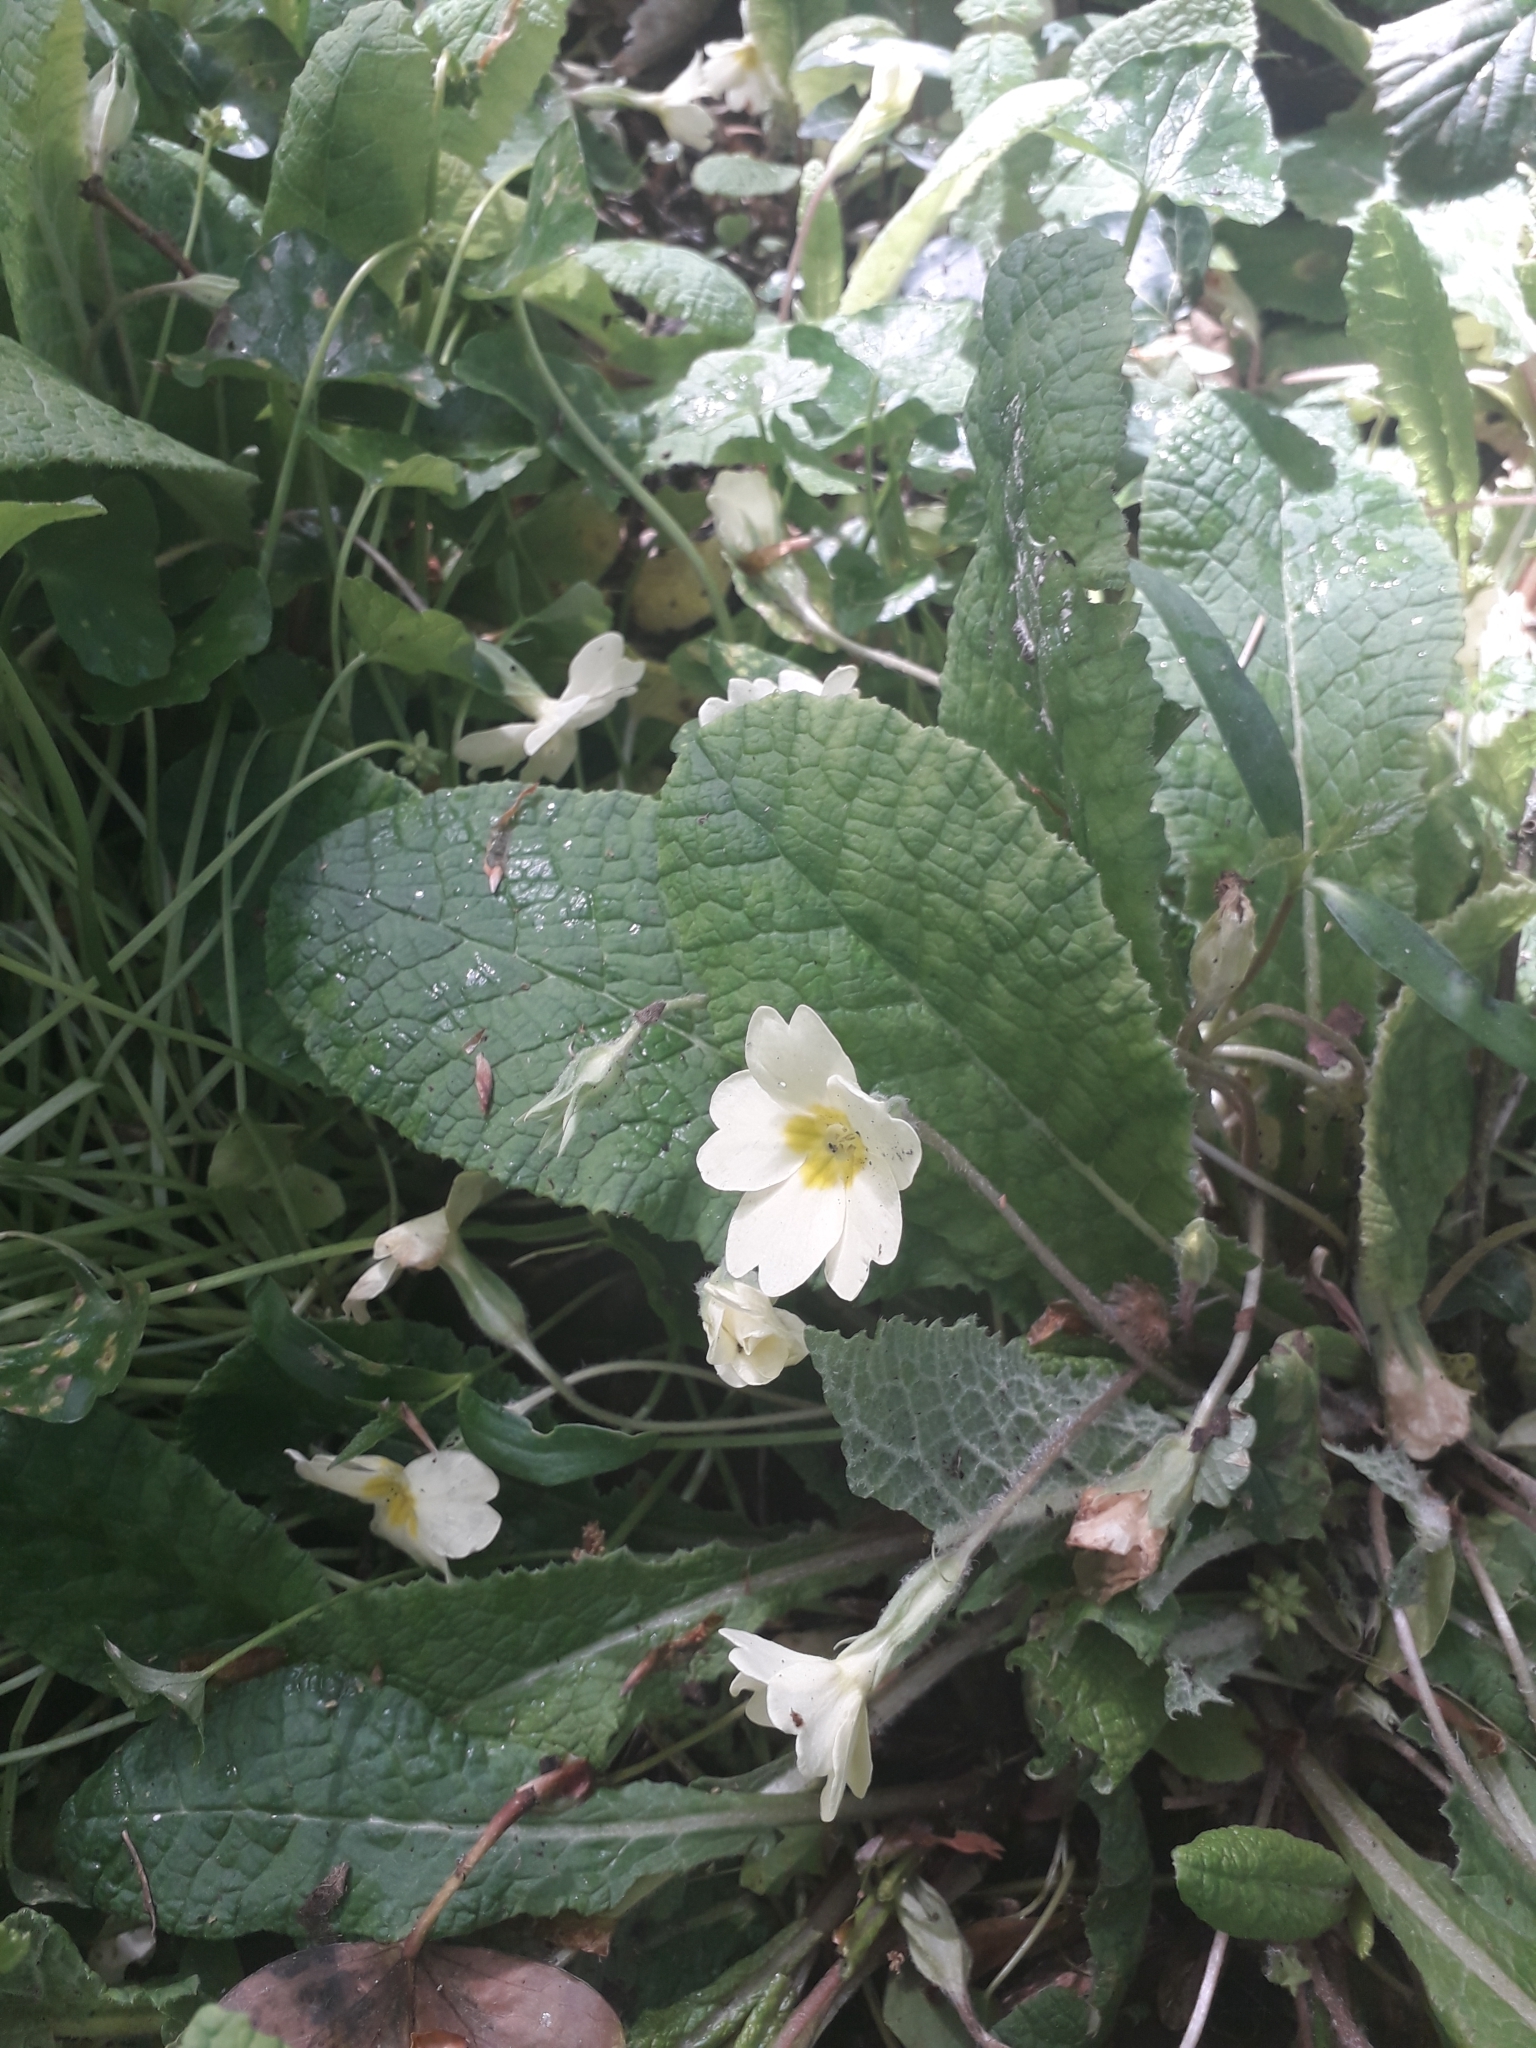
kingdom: Plantae
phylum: Tracheophyta
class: Magnoliopsida
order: Ericales
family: Primulaceae
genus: Primula
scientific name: Primula vulgaris
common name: Primrose
